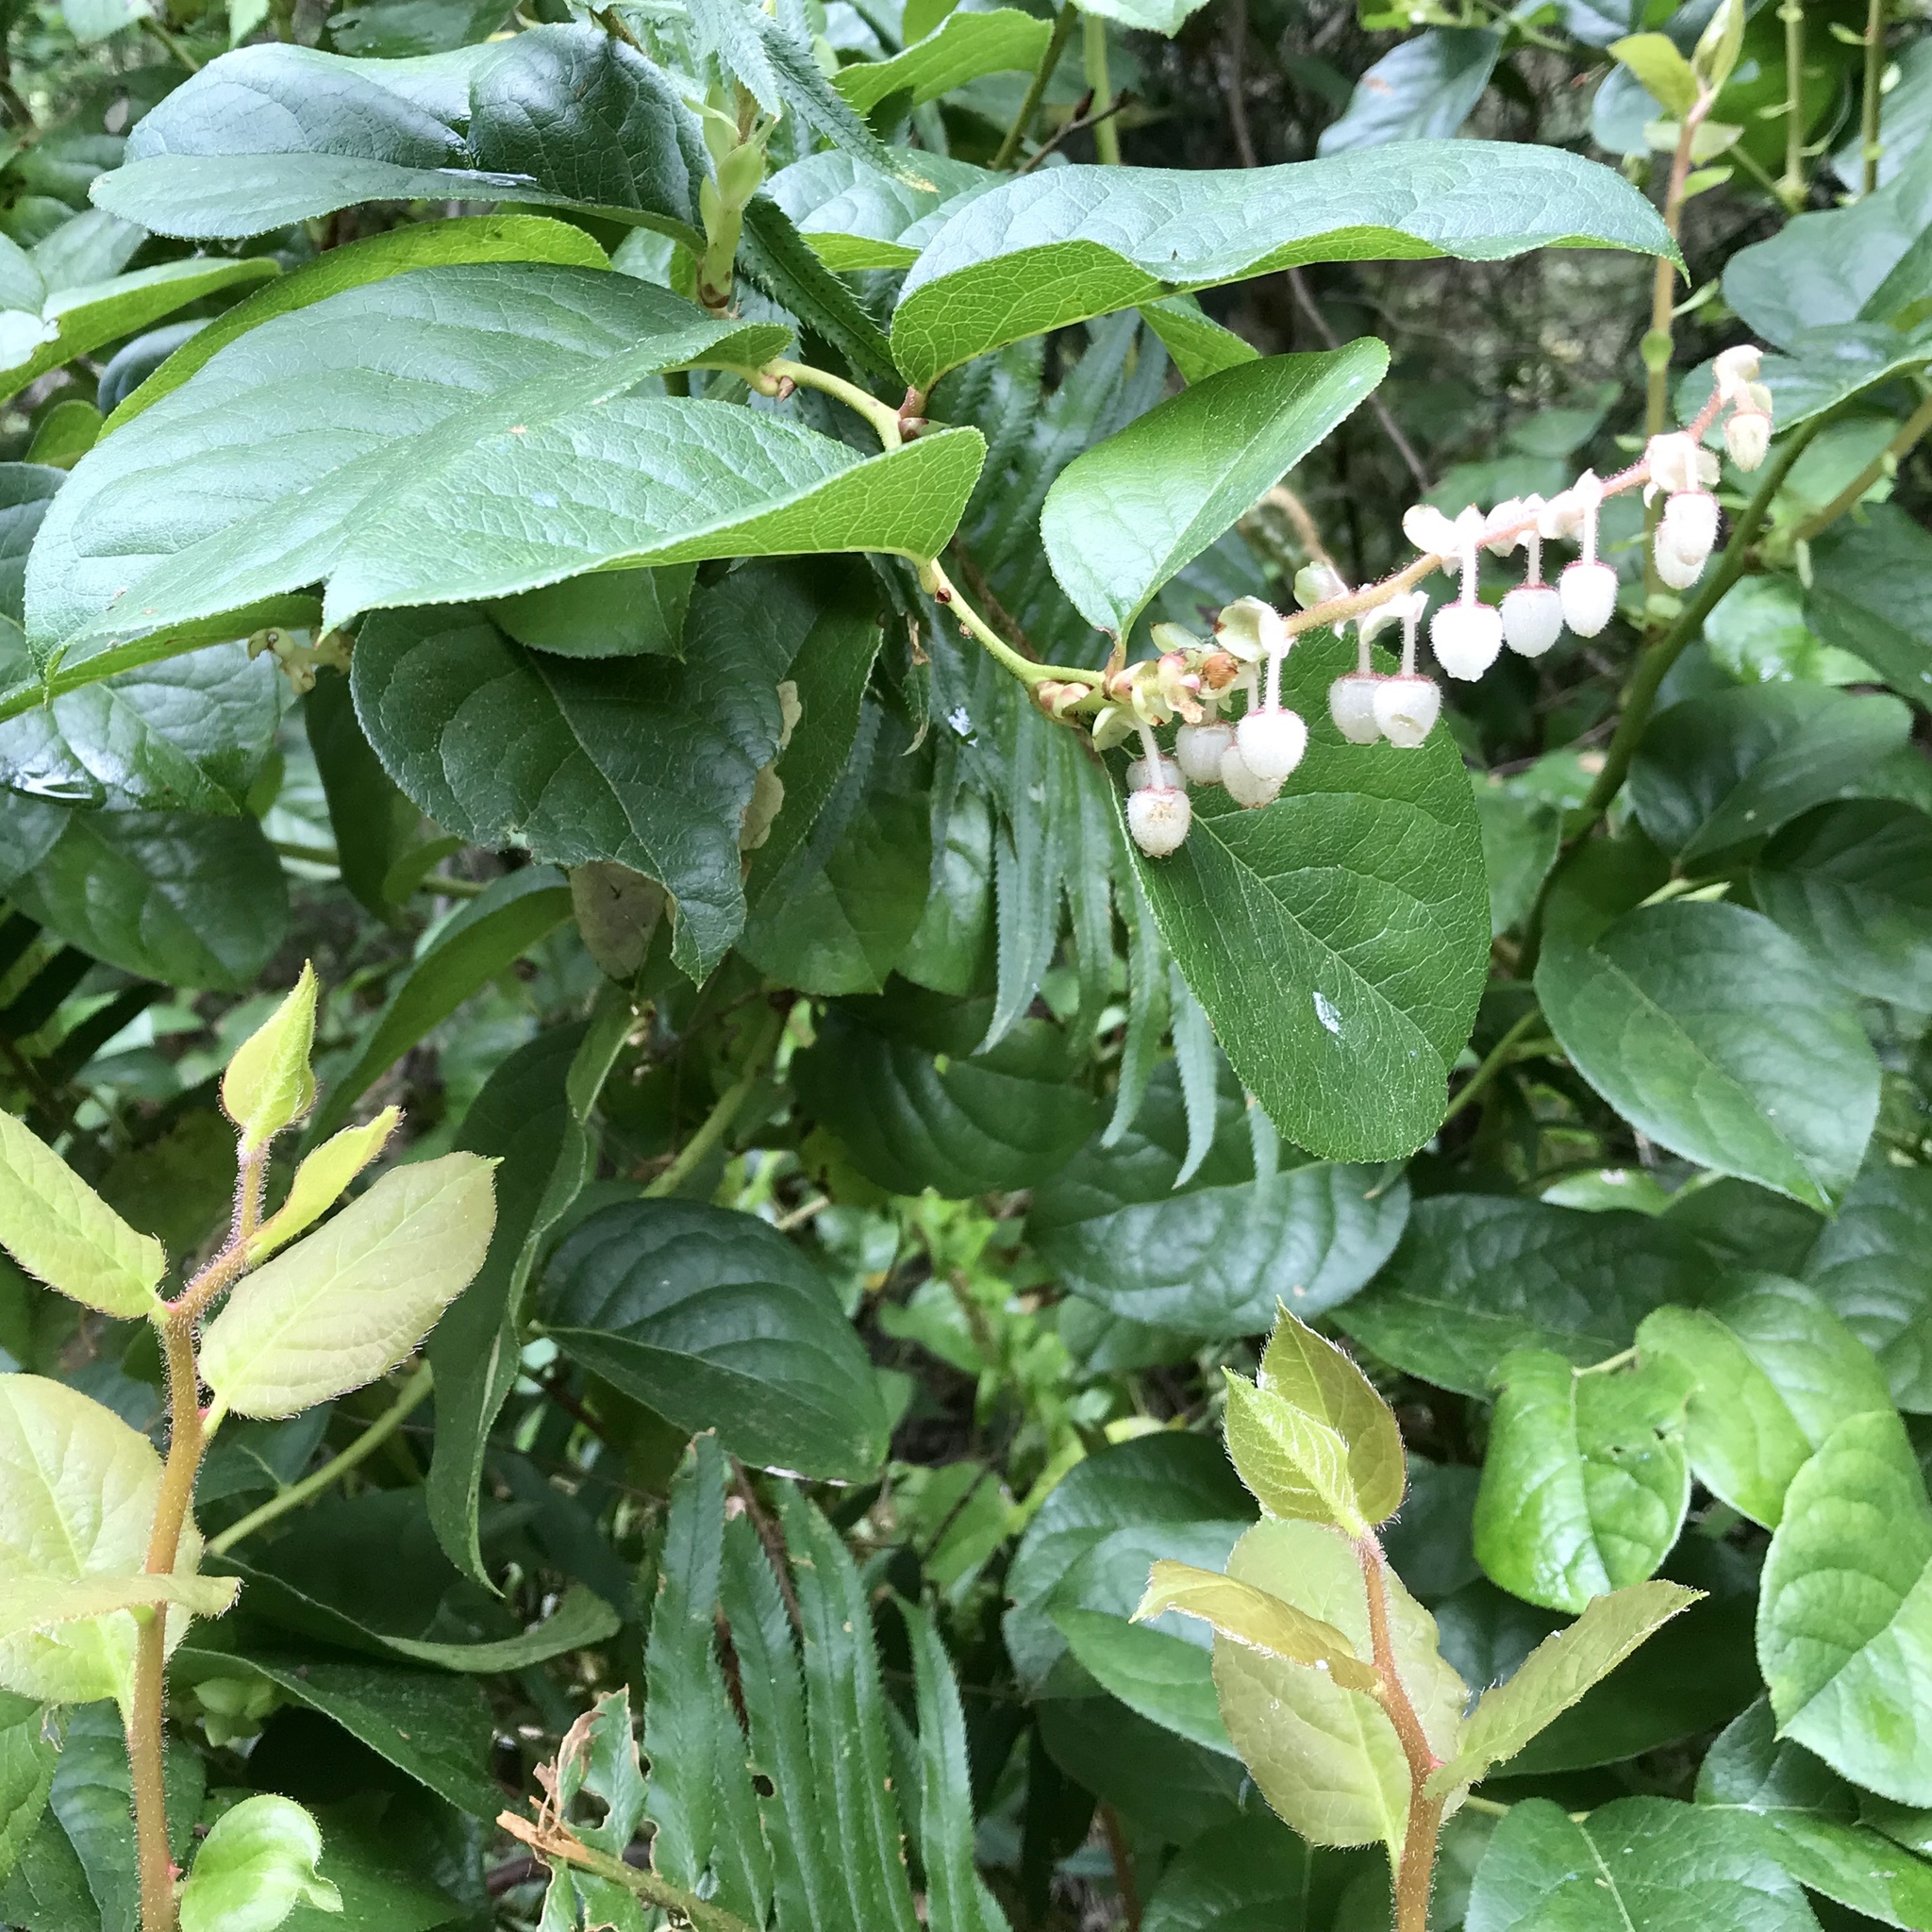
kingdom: Plantae
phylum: Tracheophyta
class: Magnoliopsida
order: Ericales
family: Ericaceae
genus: Gaultheria
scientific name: Gaultheria shallon
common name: Shallon
